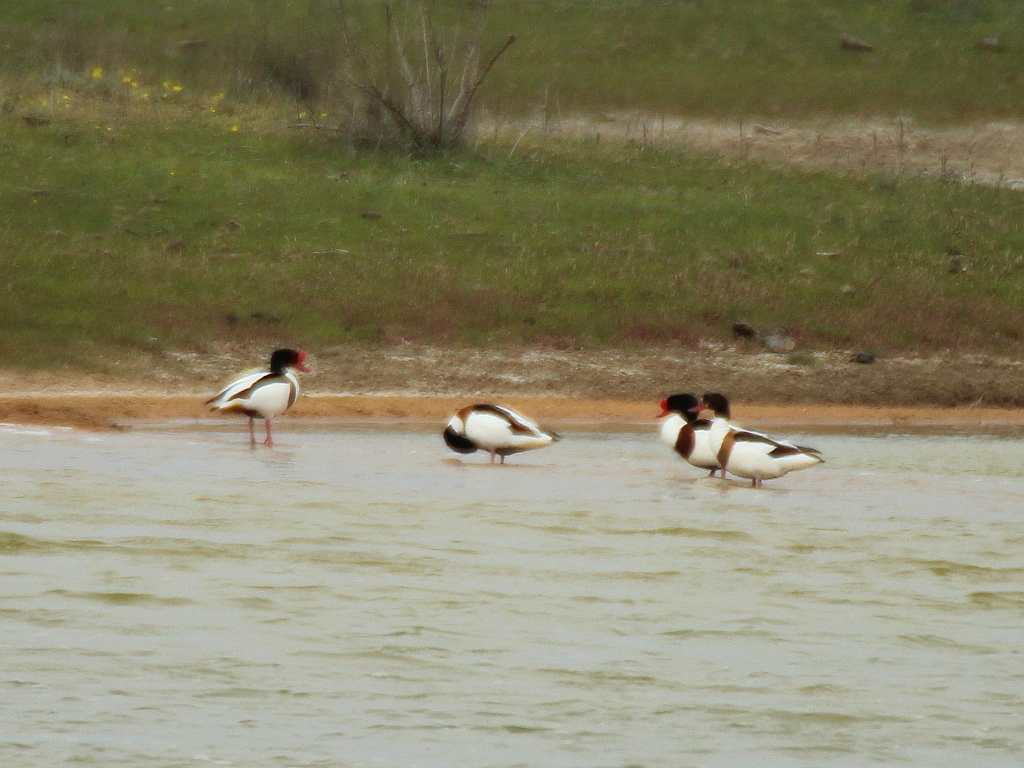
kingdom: Animalia
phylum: Chordata
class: Aves
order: Anseriformes
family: Anatidae
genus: Tadorna
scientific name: Tadorna tadorna
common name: Common shelduck
